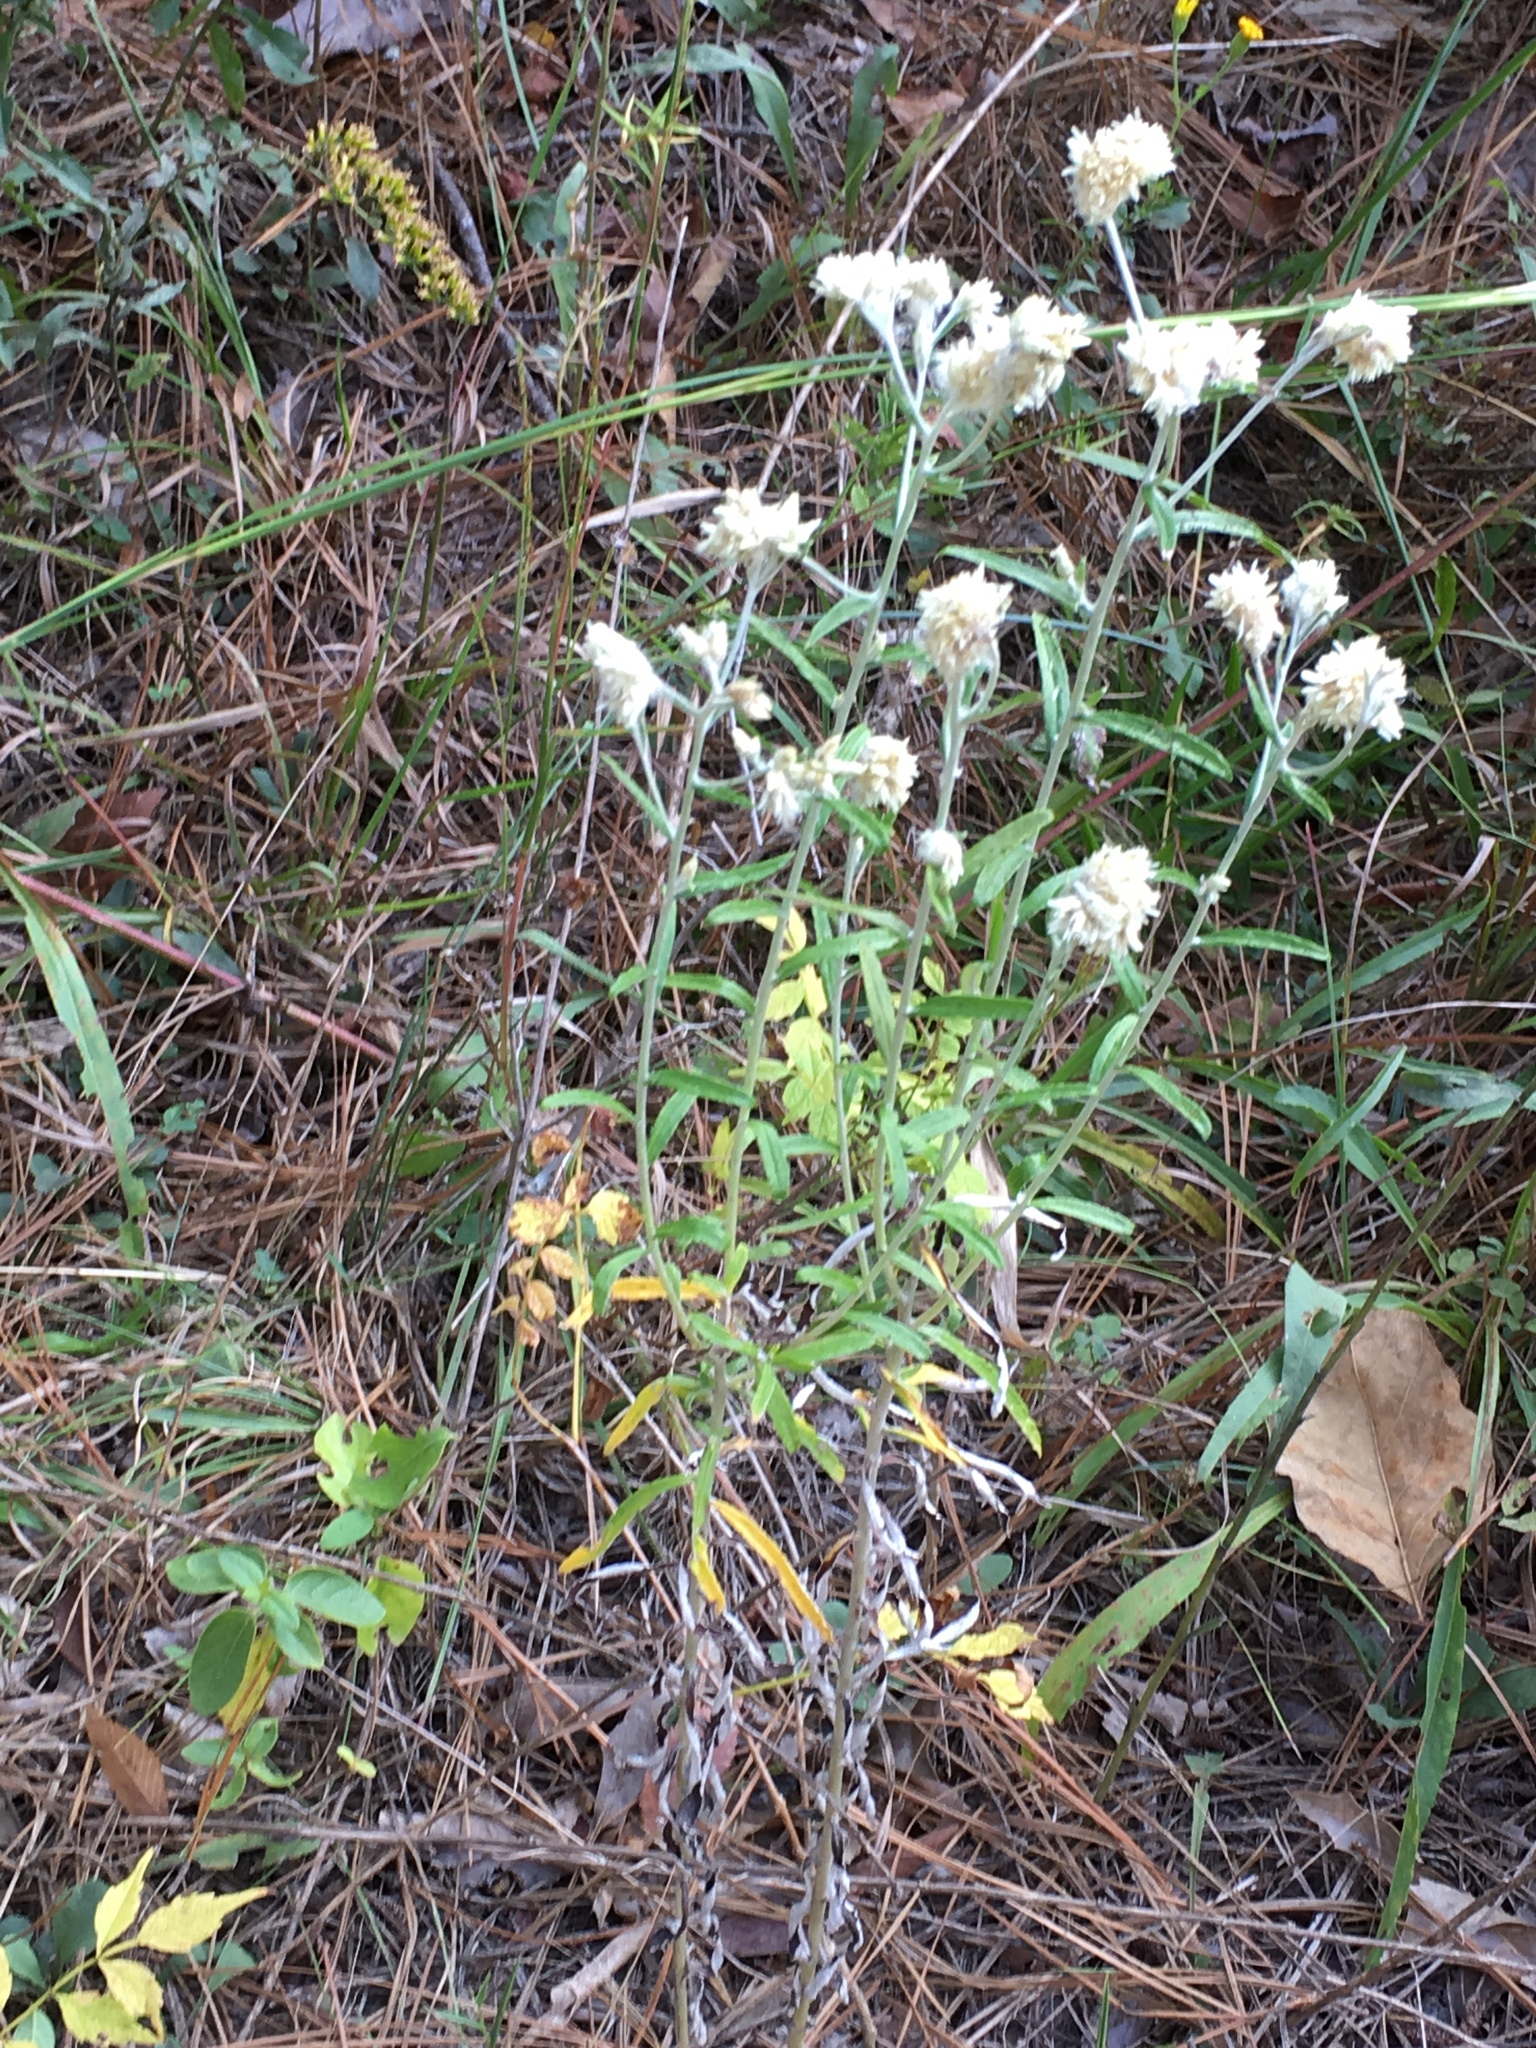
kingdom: Plantae
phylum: Tracheophyta
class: Magnoliopsida
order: Asterales
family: Asteraceae
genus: Pseudognaphalium
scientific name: Pseudognaphalium obtusifolium
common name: Eastern rabbit-tobacco
